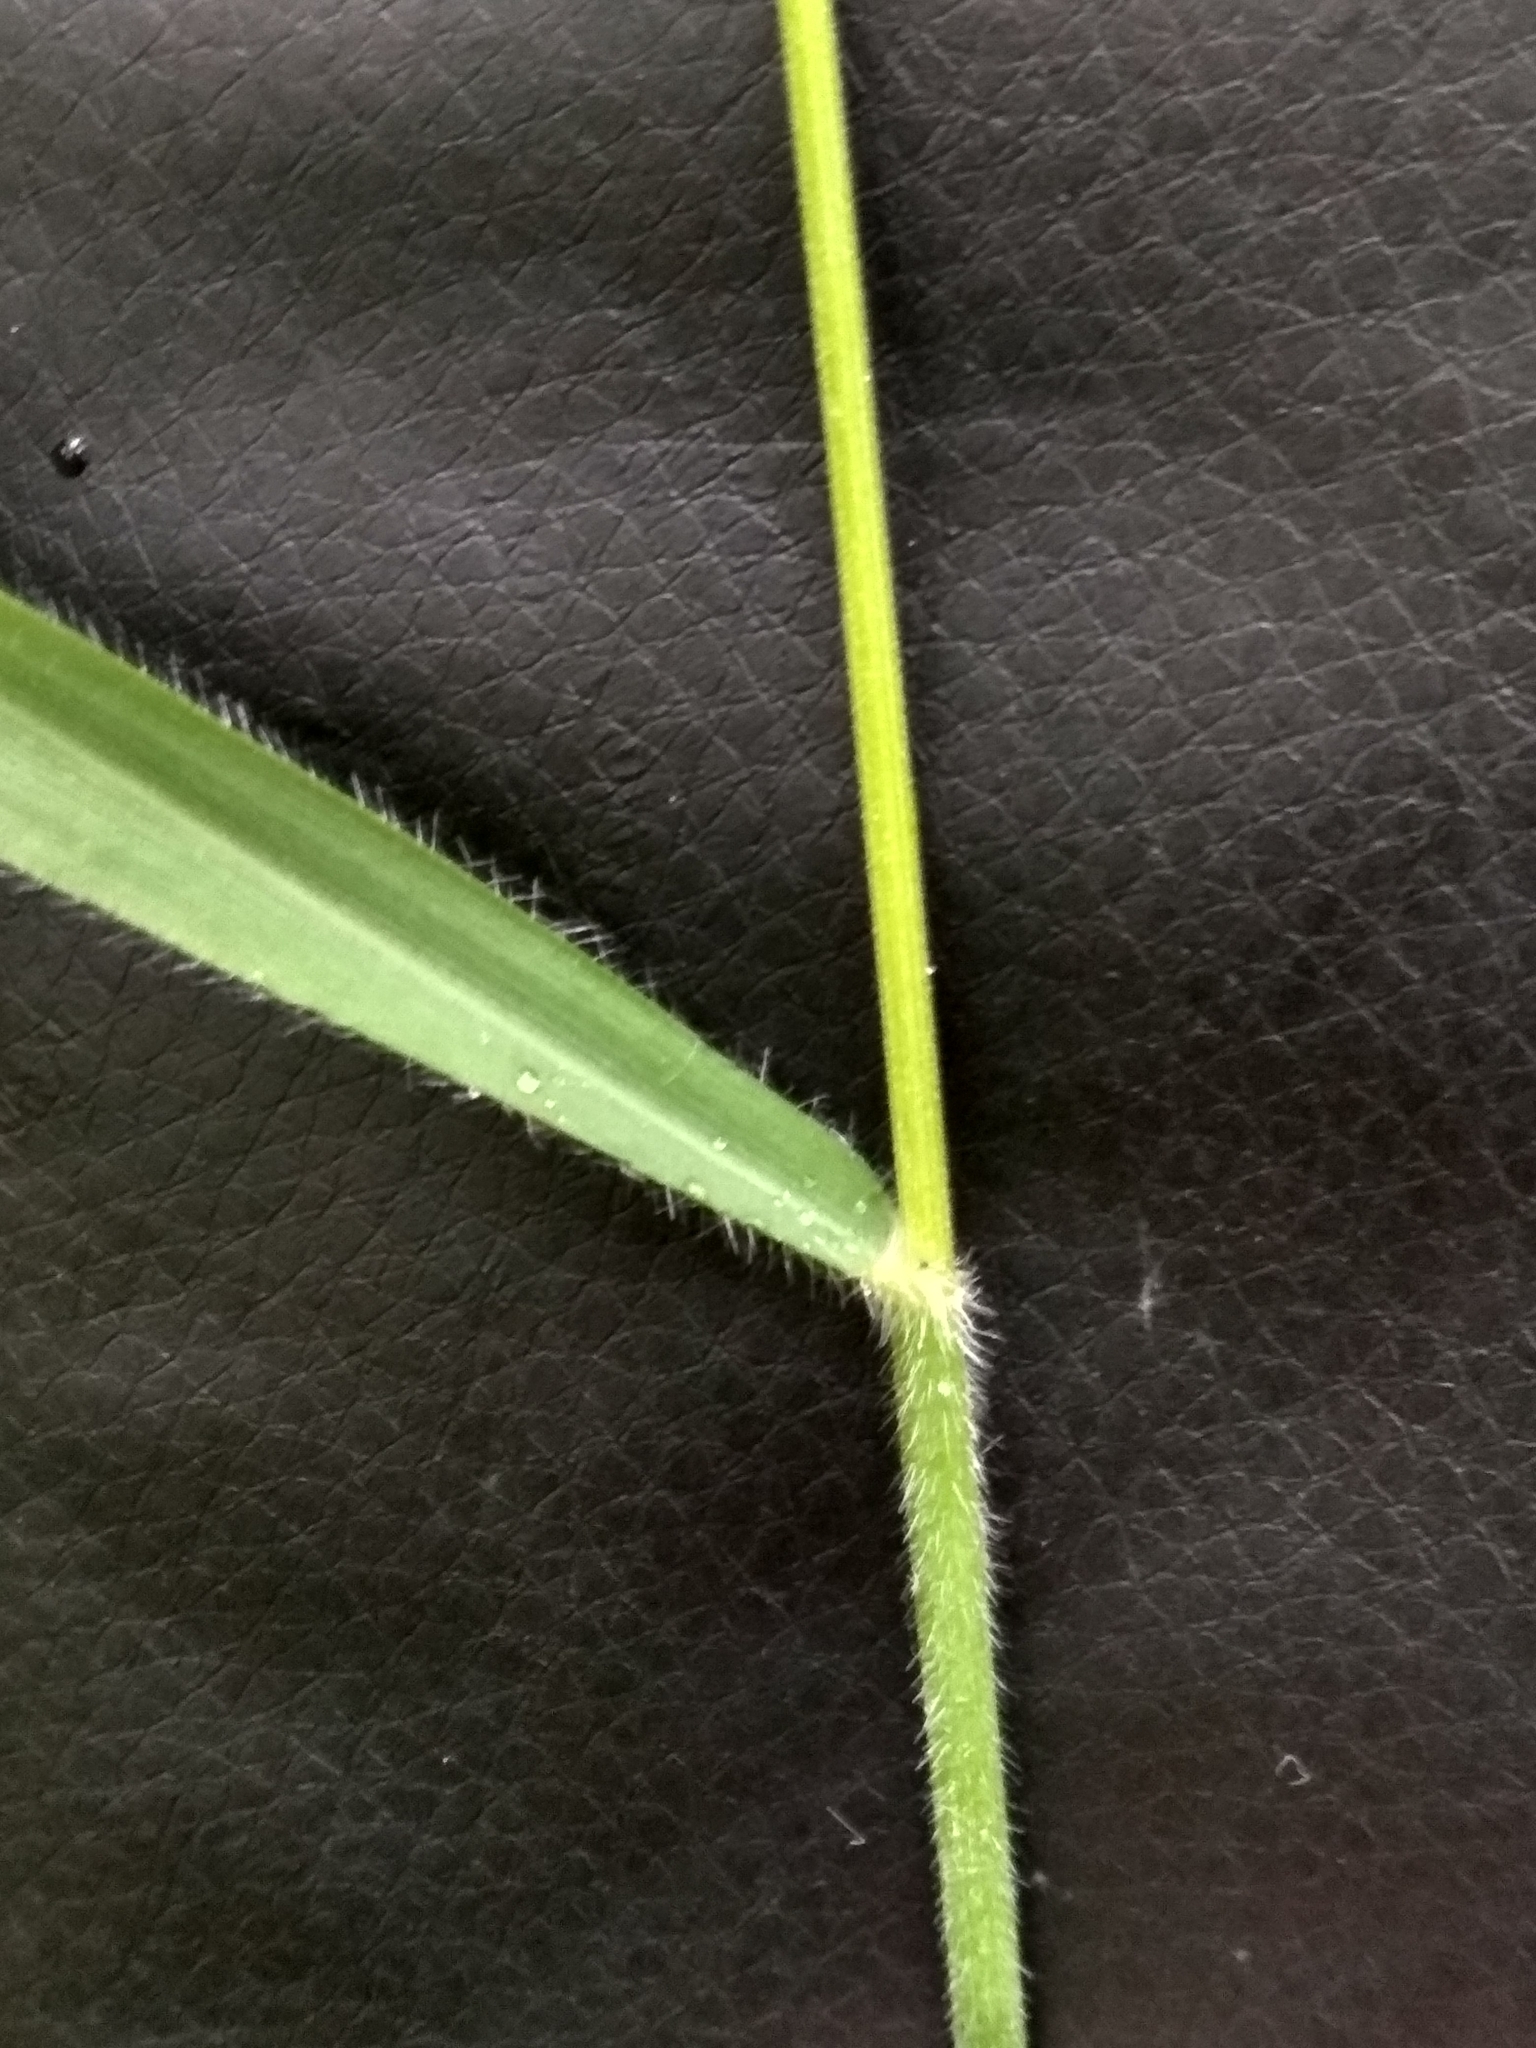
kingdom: Plantae
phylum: Tracheophyta
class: Liliopsida
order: Poales
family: Poaceae
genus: Bromus
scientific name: Bromus benekenii
